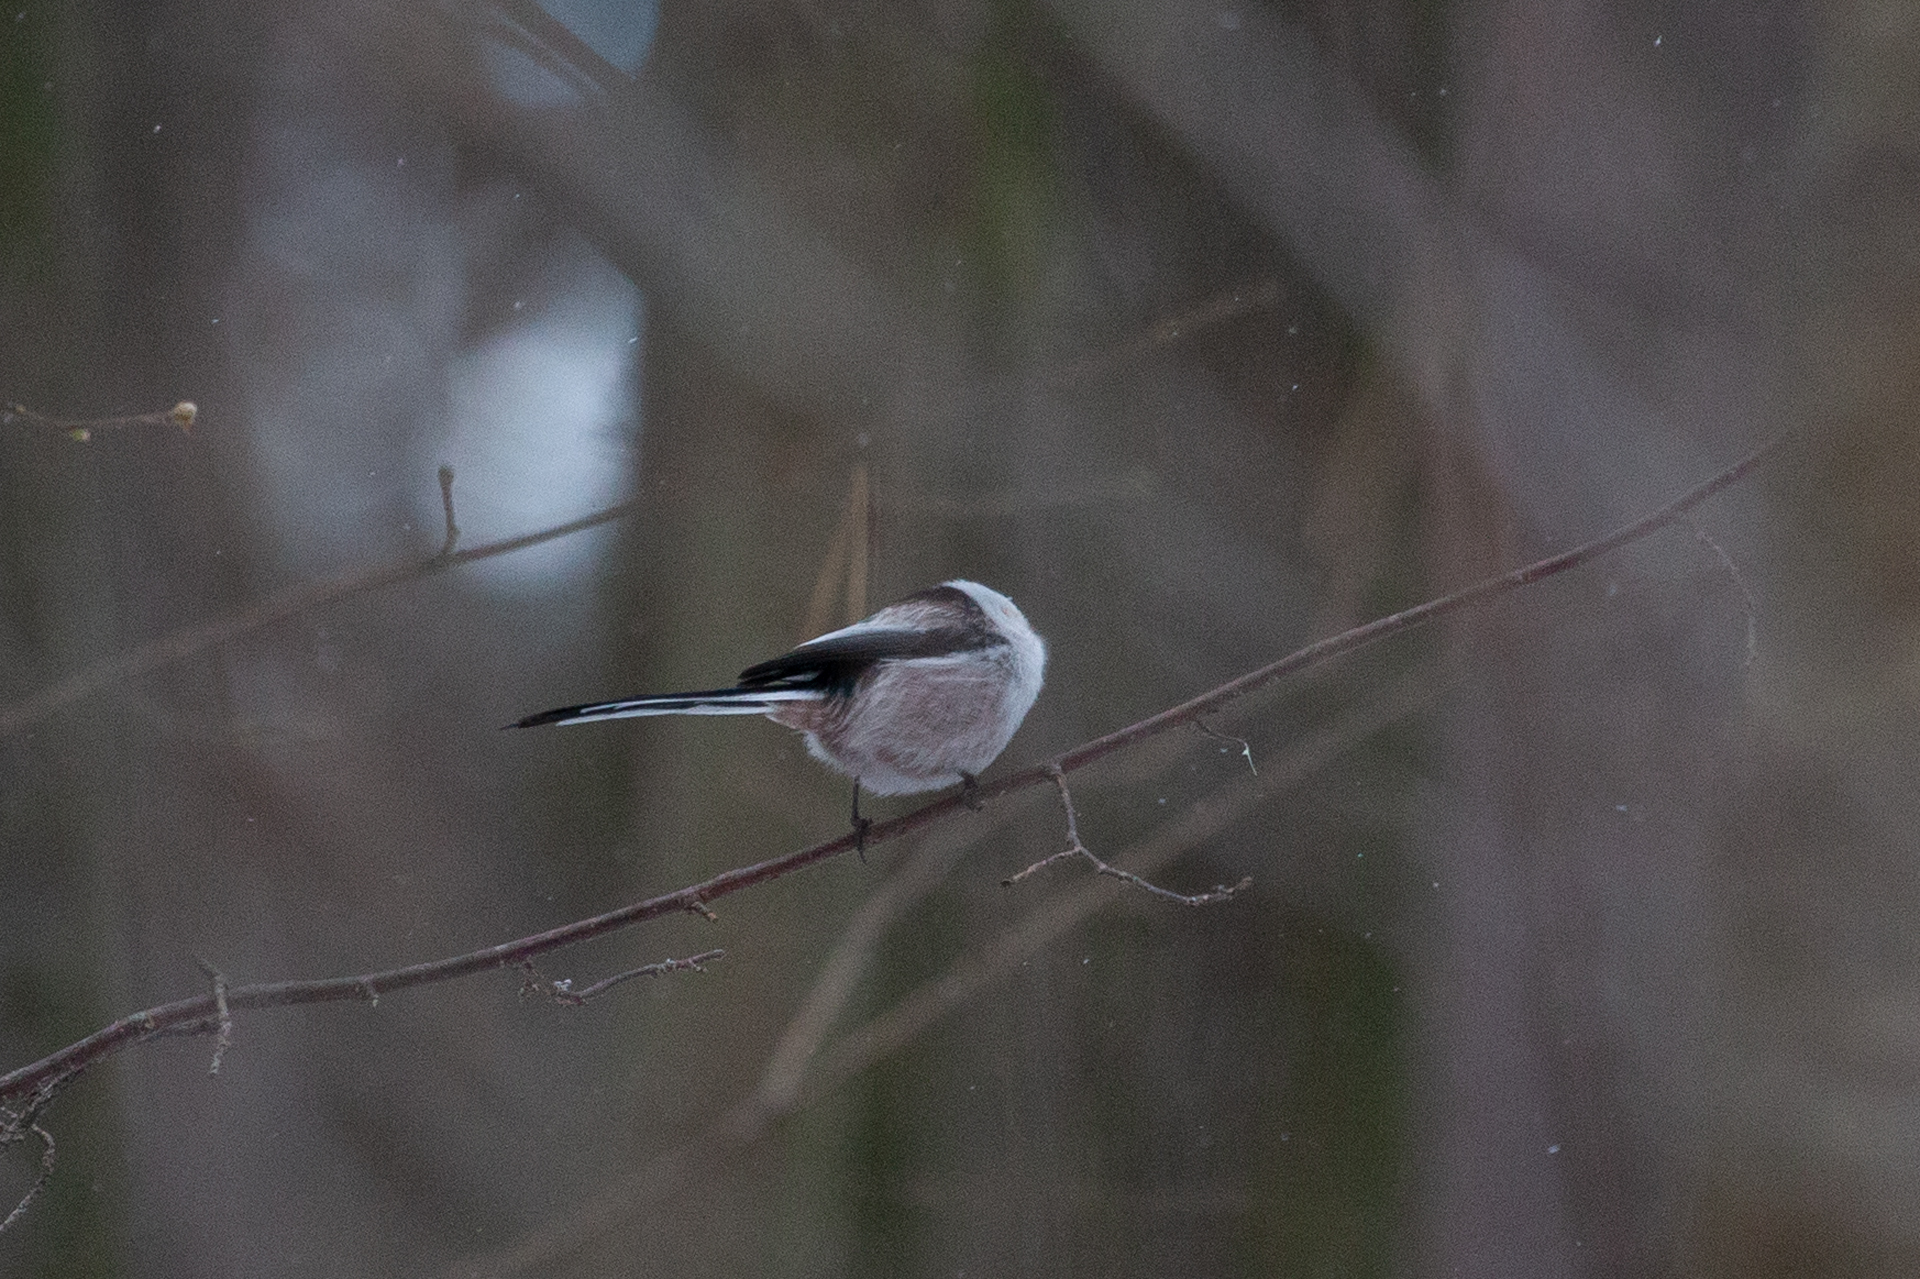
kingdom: Animalia
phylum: Chordata
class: Aves
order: Passeriformes
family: Aegithalidae
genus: Aegithalos
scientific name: Aegithalos caudatus
